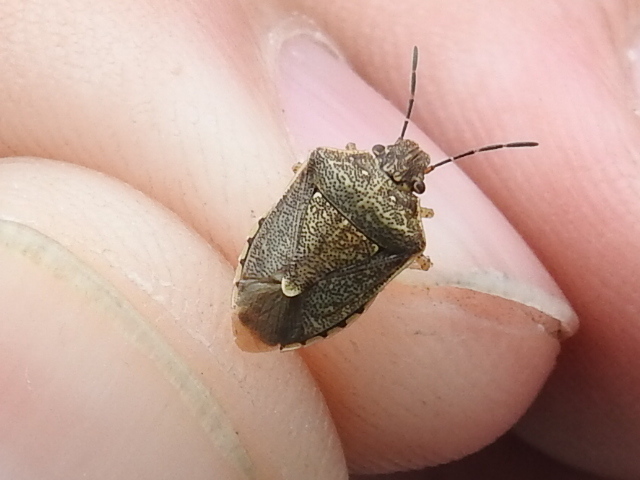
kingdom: Animalia
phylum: Arthropoda
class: Insecta
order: Hemiptera
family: Pentatomidae
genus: Moromorpha
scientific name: Moromorpha tetra
